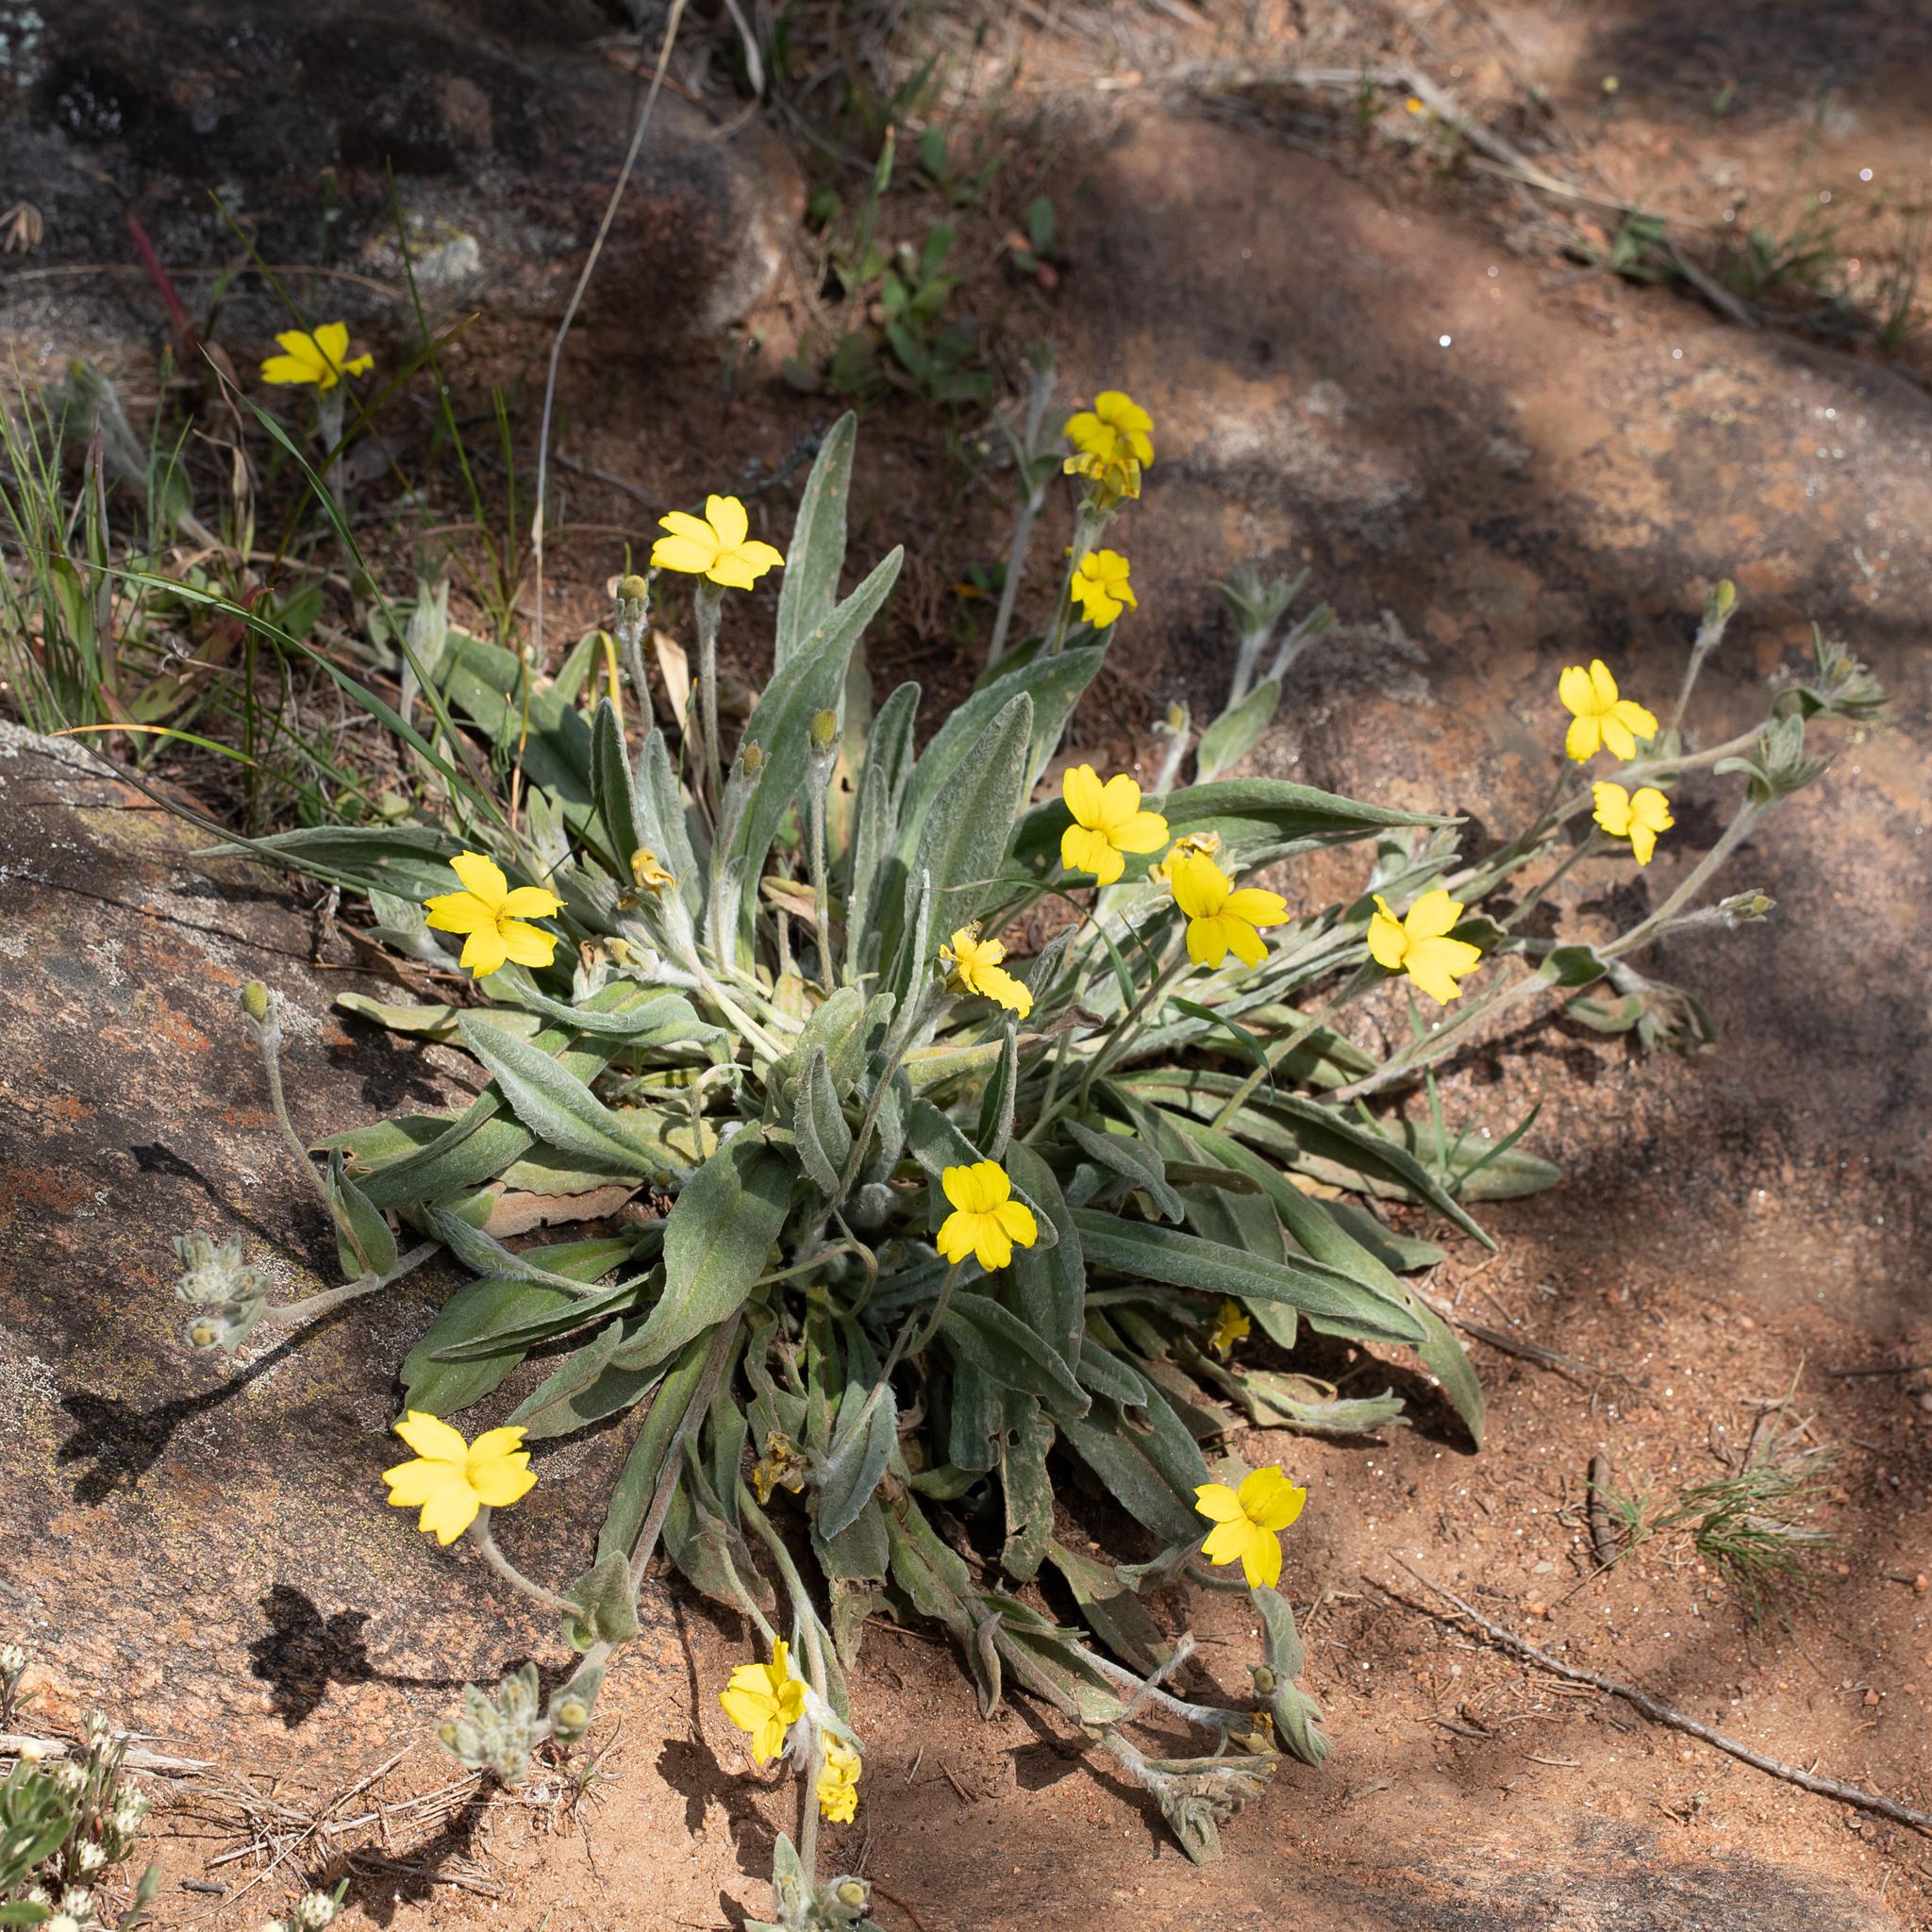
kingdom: Plantae
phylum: Tracheophyta
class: Magnoliopsida
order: Asterales
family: Goodeniaceae
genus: Goodenia
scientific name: Goodenia willisiana
